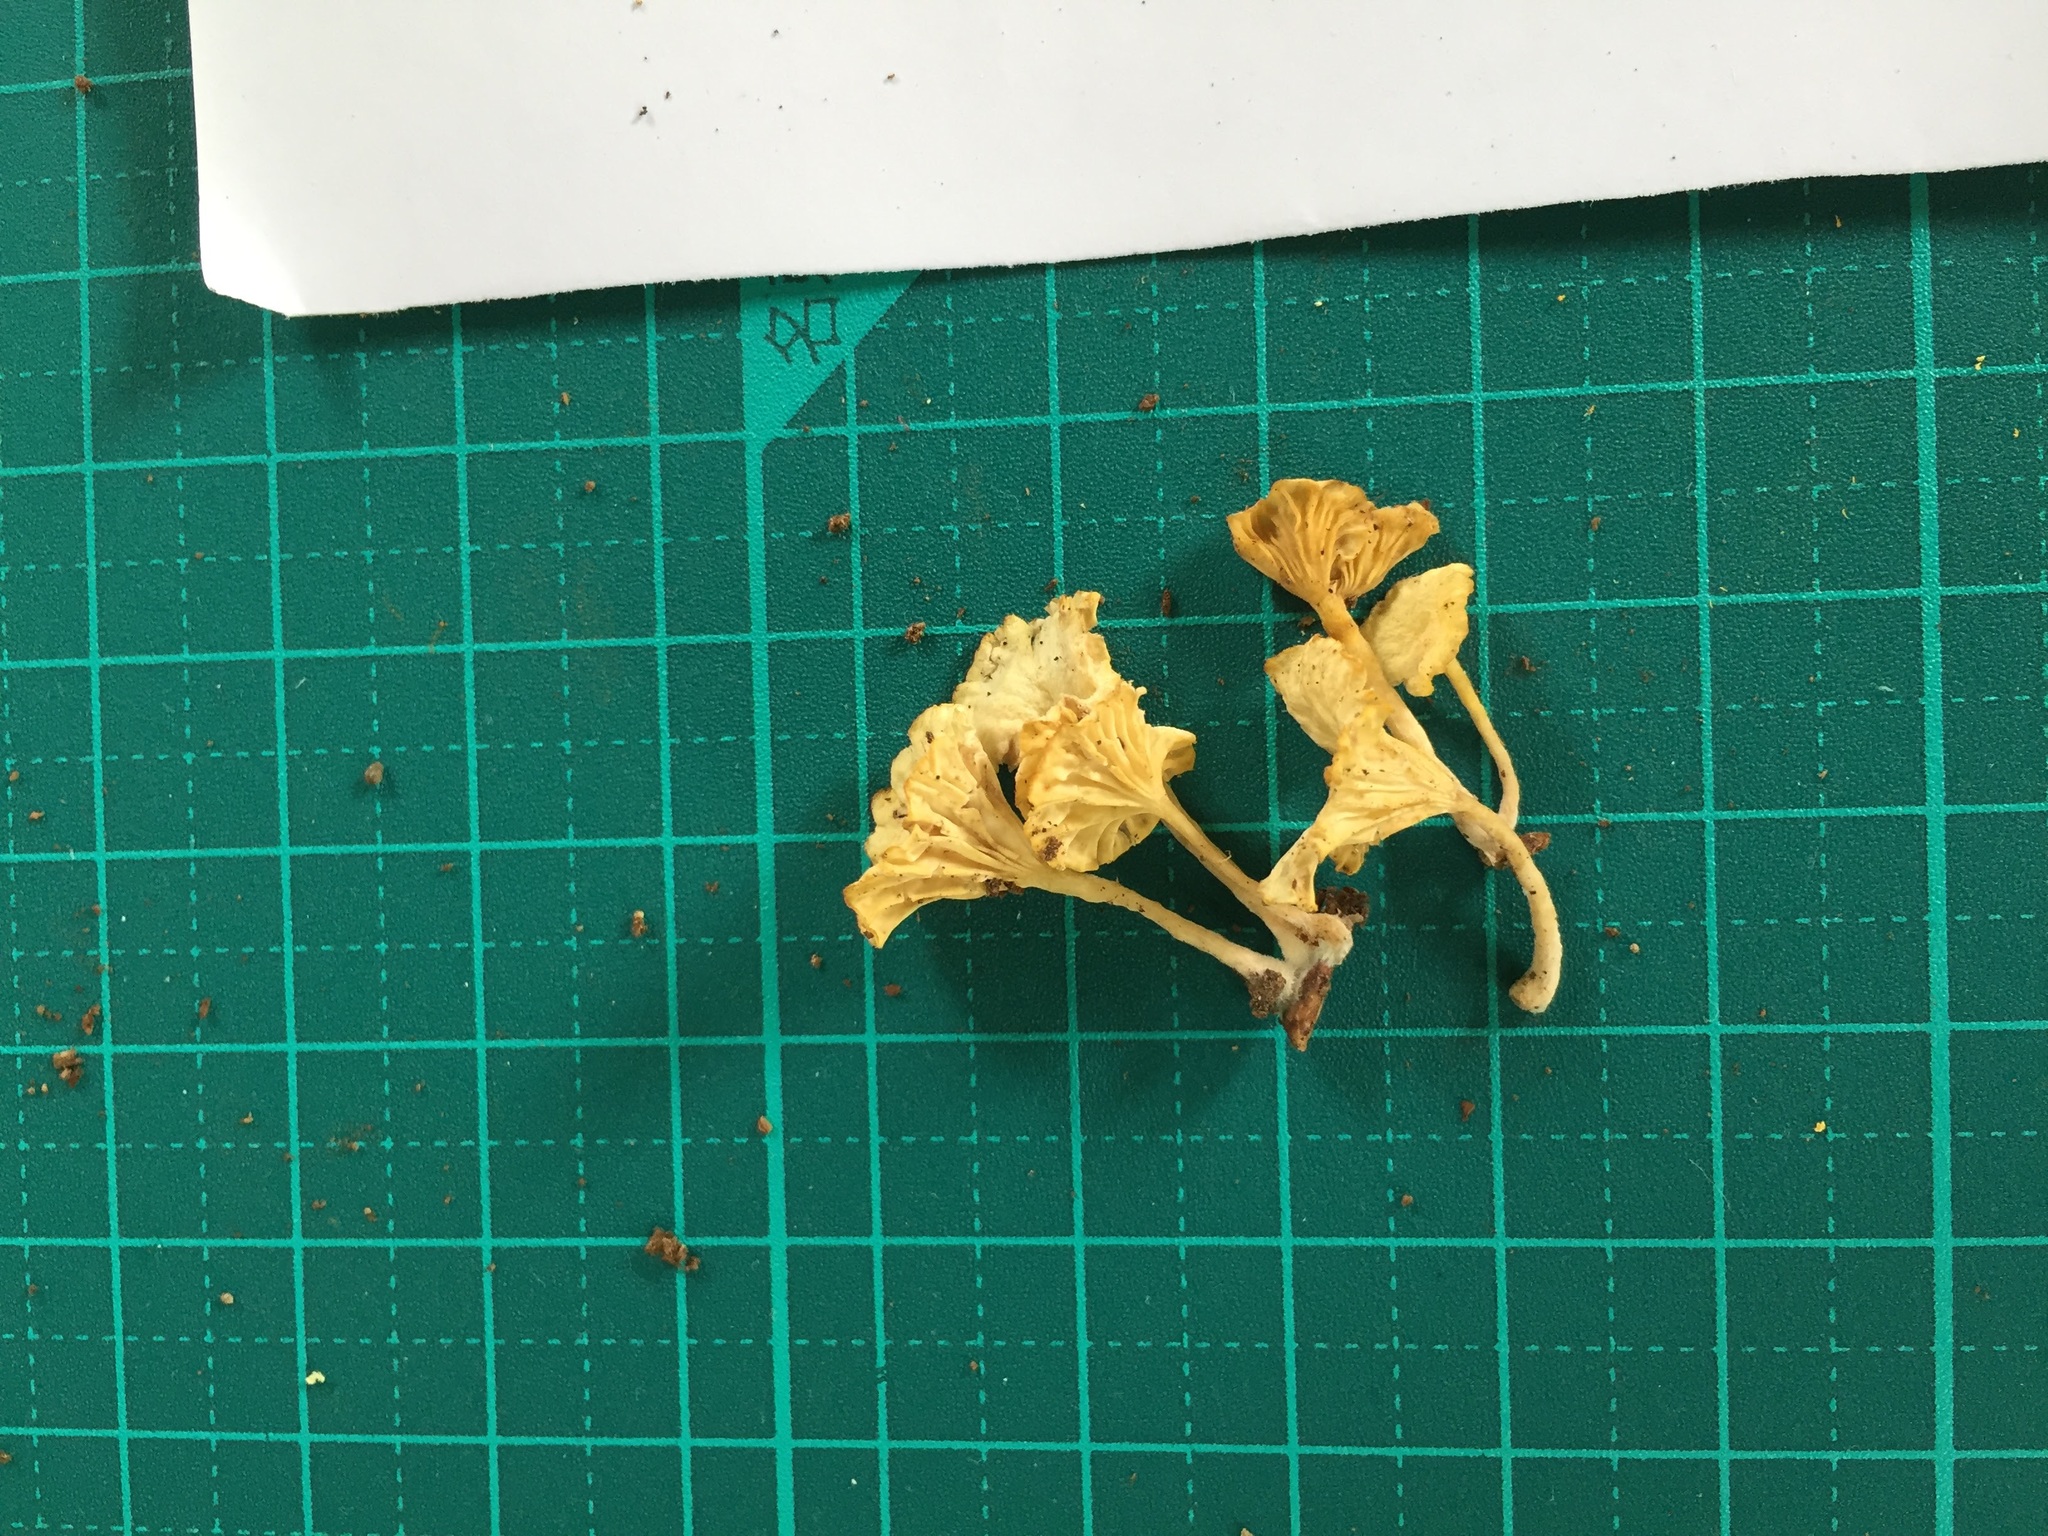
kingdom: Fungi
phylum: Basidiomycota
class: Agaricomycetes
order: Agaricales
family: Marasmiaceae
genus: Gerronema
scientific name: Gerronema nemorale
